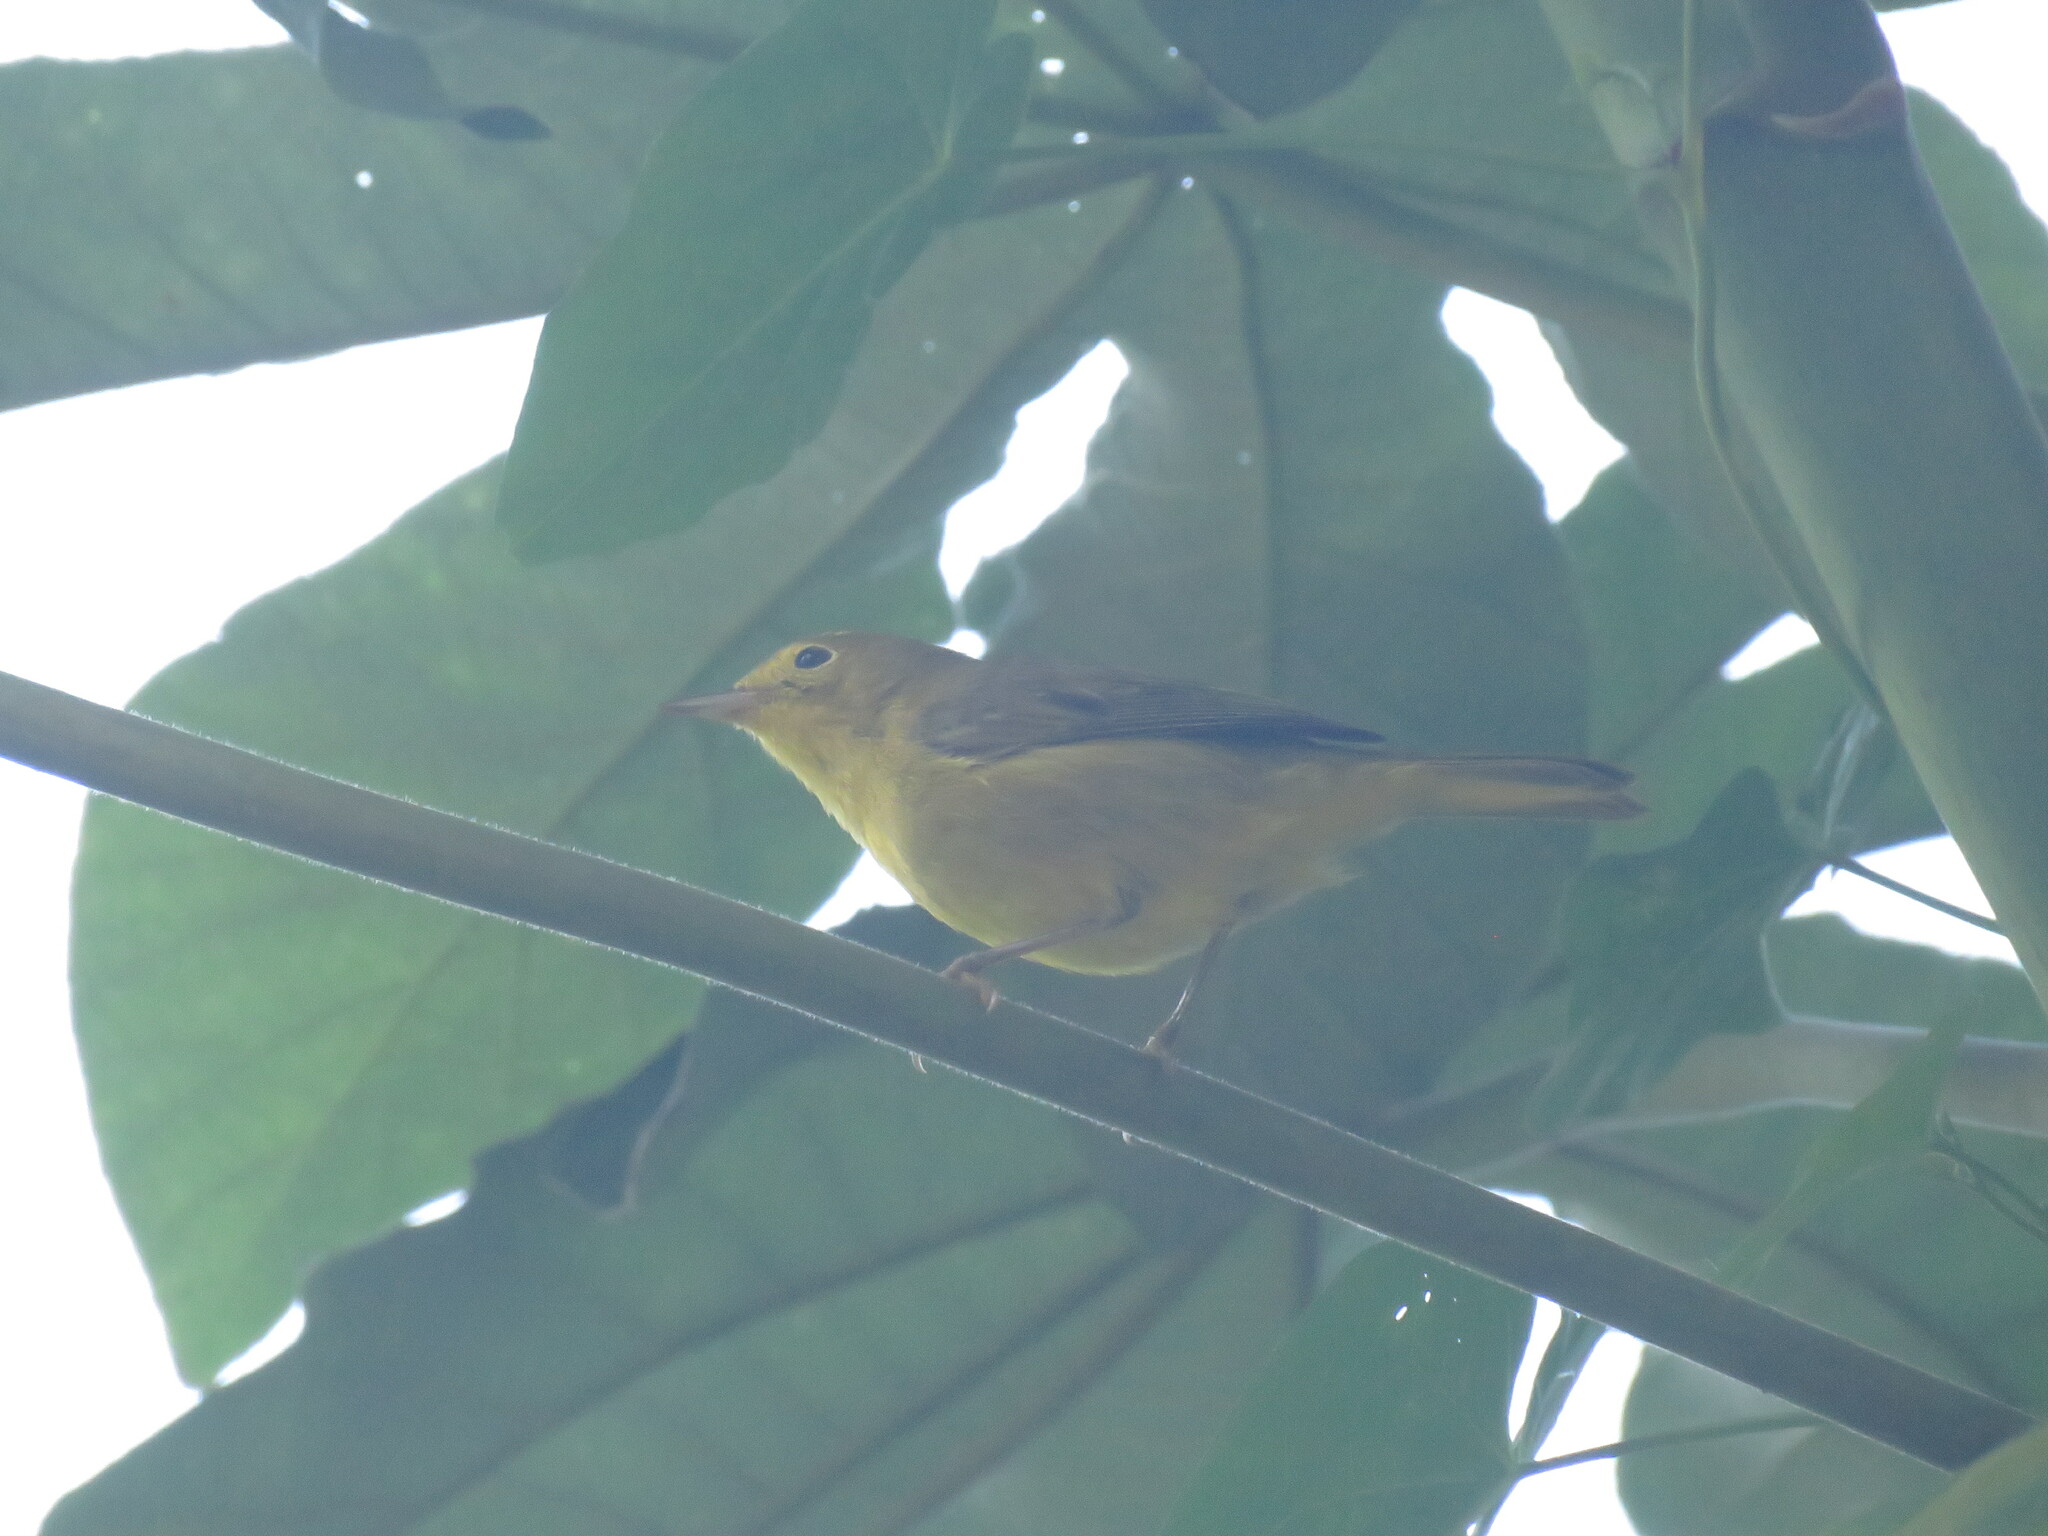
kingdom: Animalia
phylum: Chordata
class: Aves
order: Passeriformes
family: Parulidae
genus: Setophaga
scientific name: Setophaga petechia
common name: Yellow warbler
